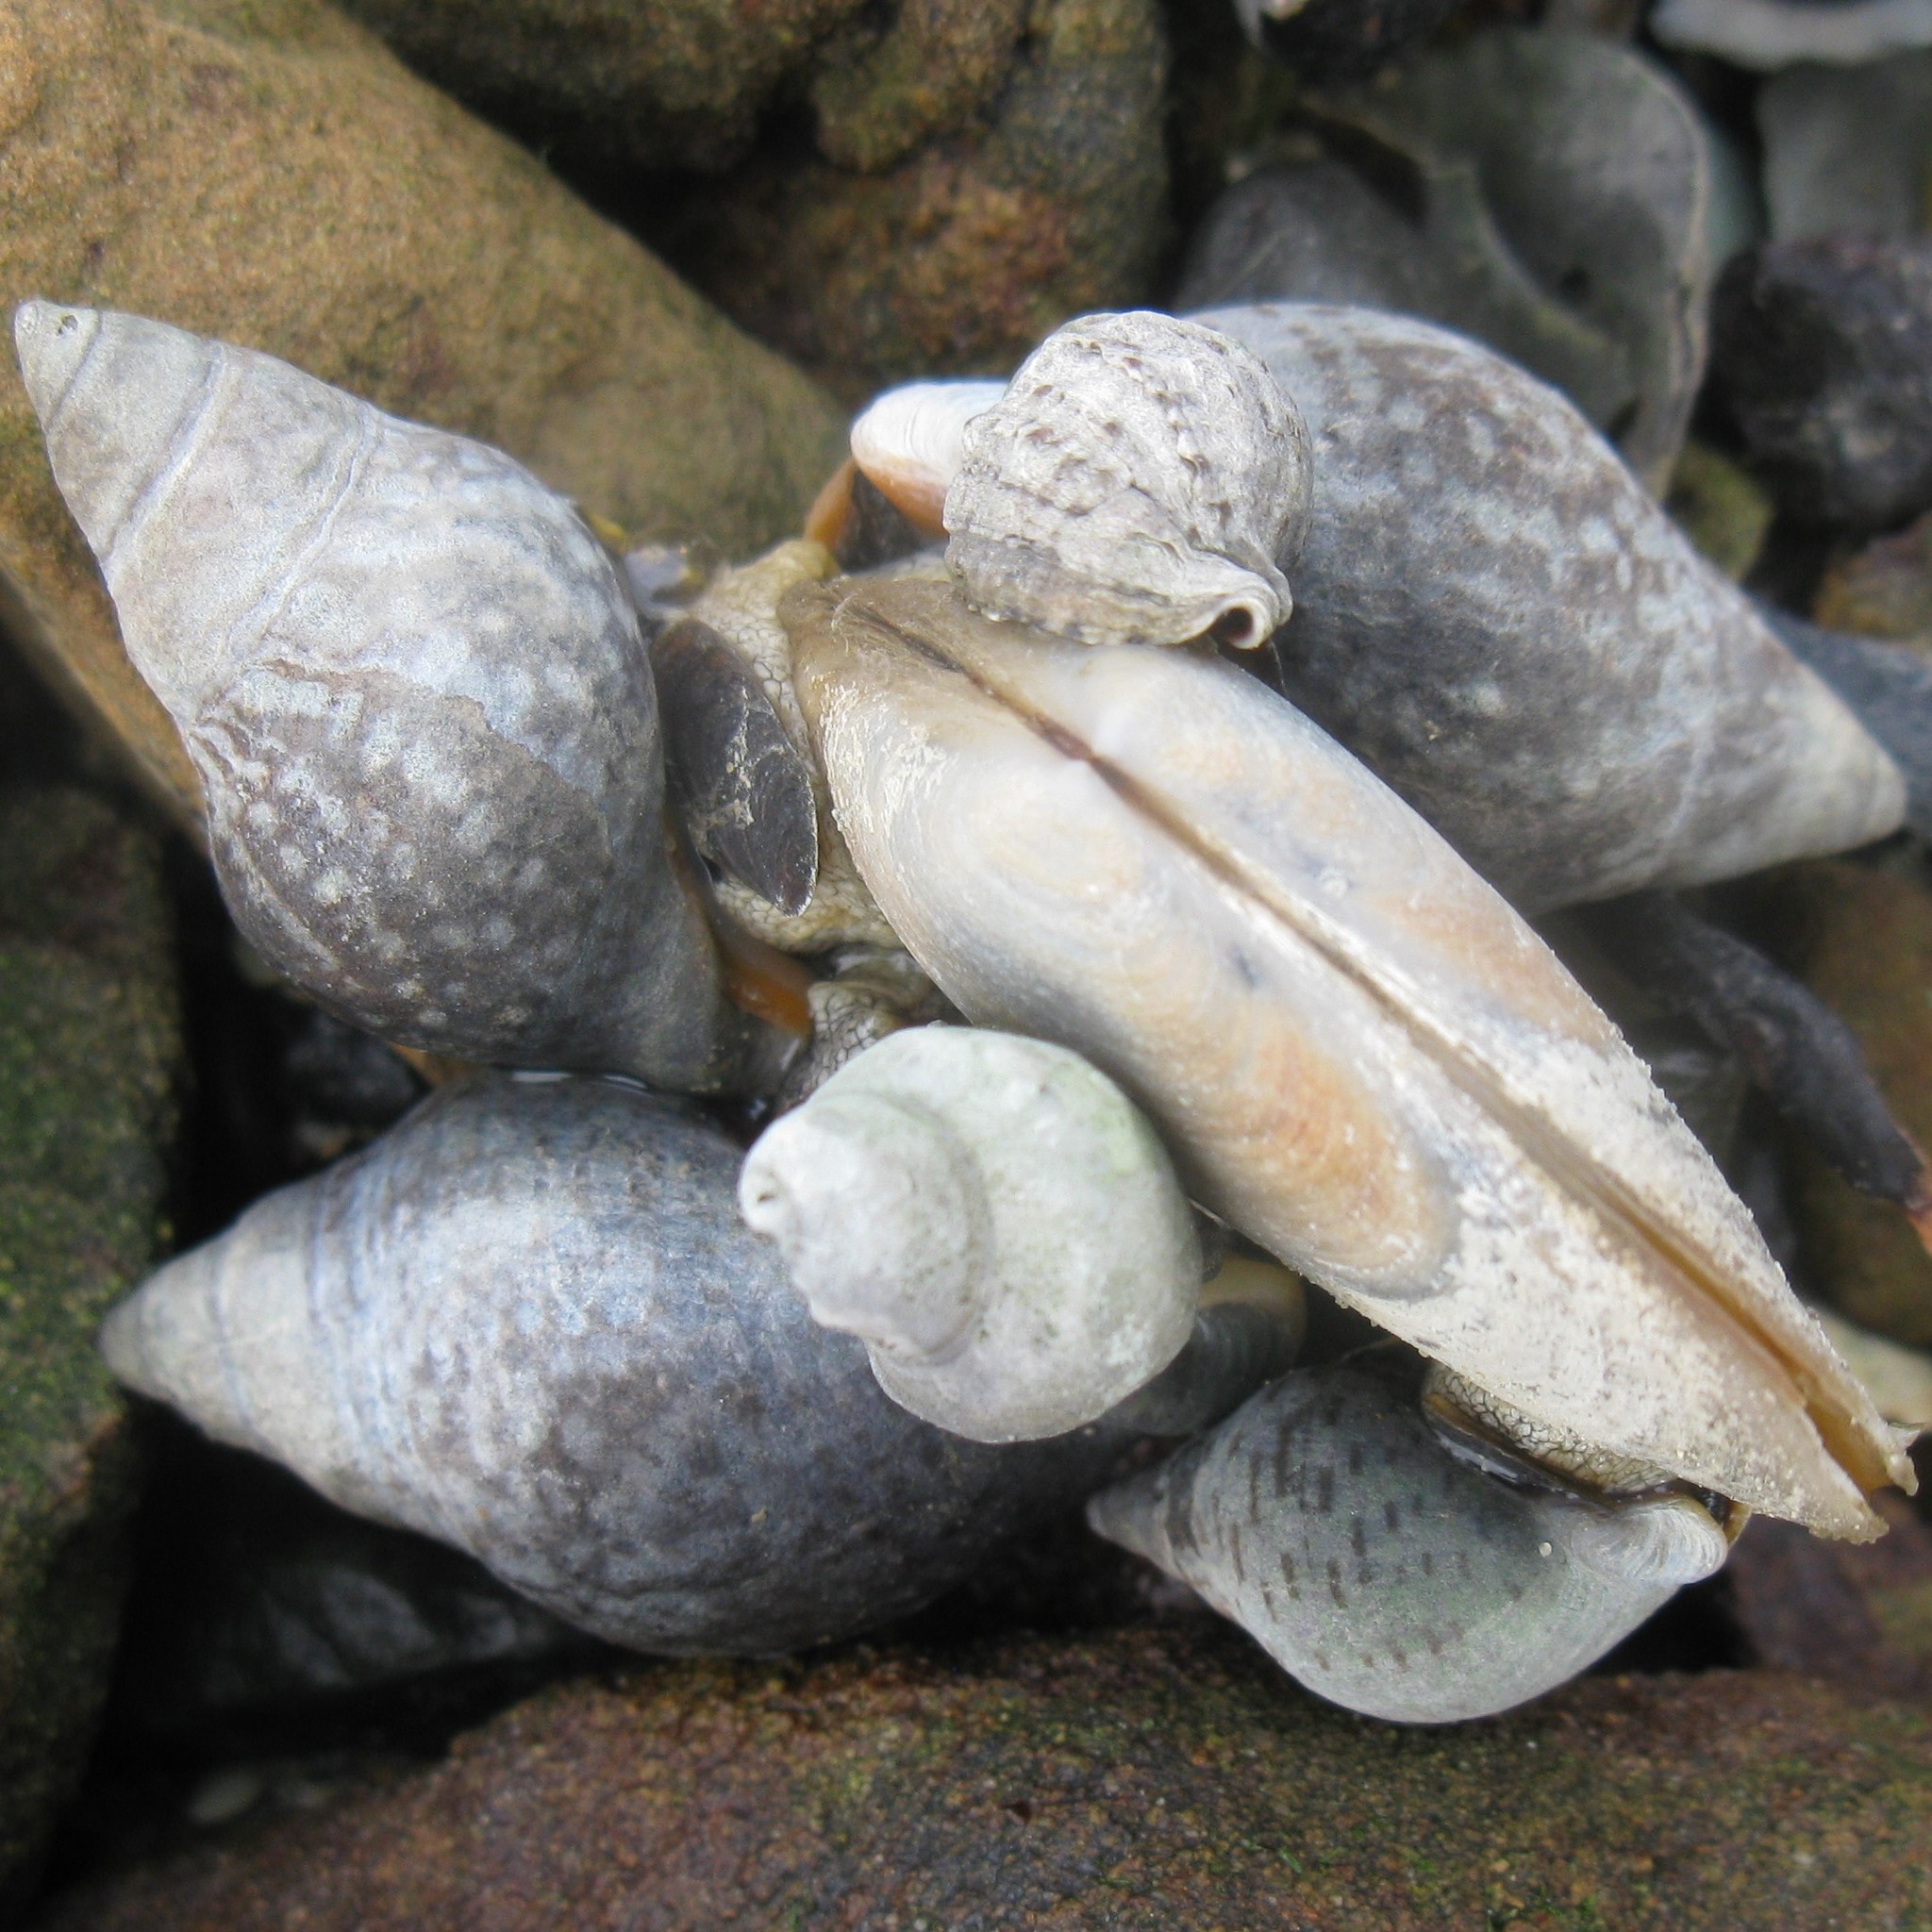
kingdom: Animalia
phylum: Mollusca
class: Bivalvia
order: Venerida
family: Mesodesmatidae
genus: Paphies
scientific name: Paphies australis
